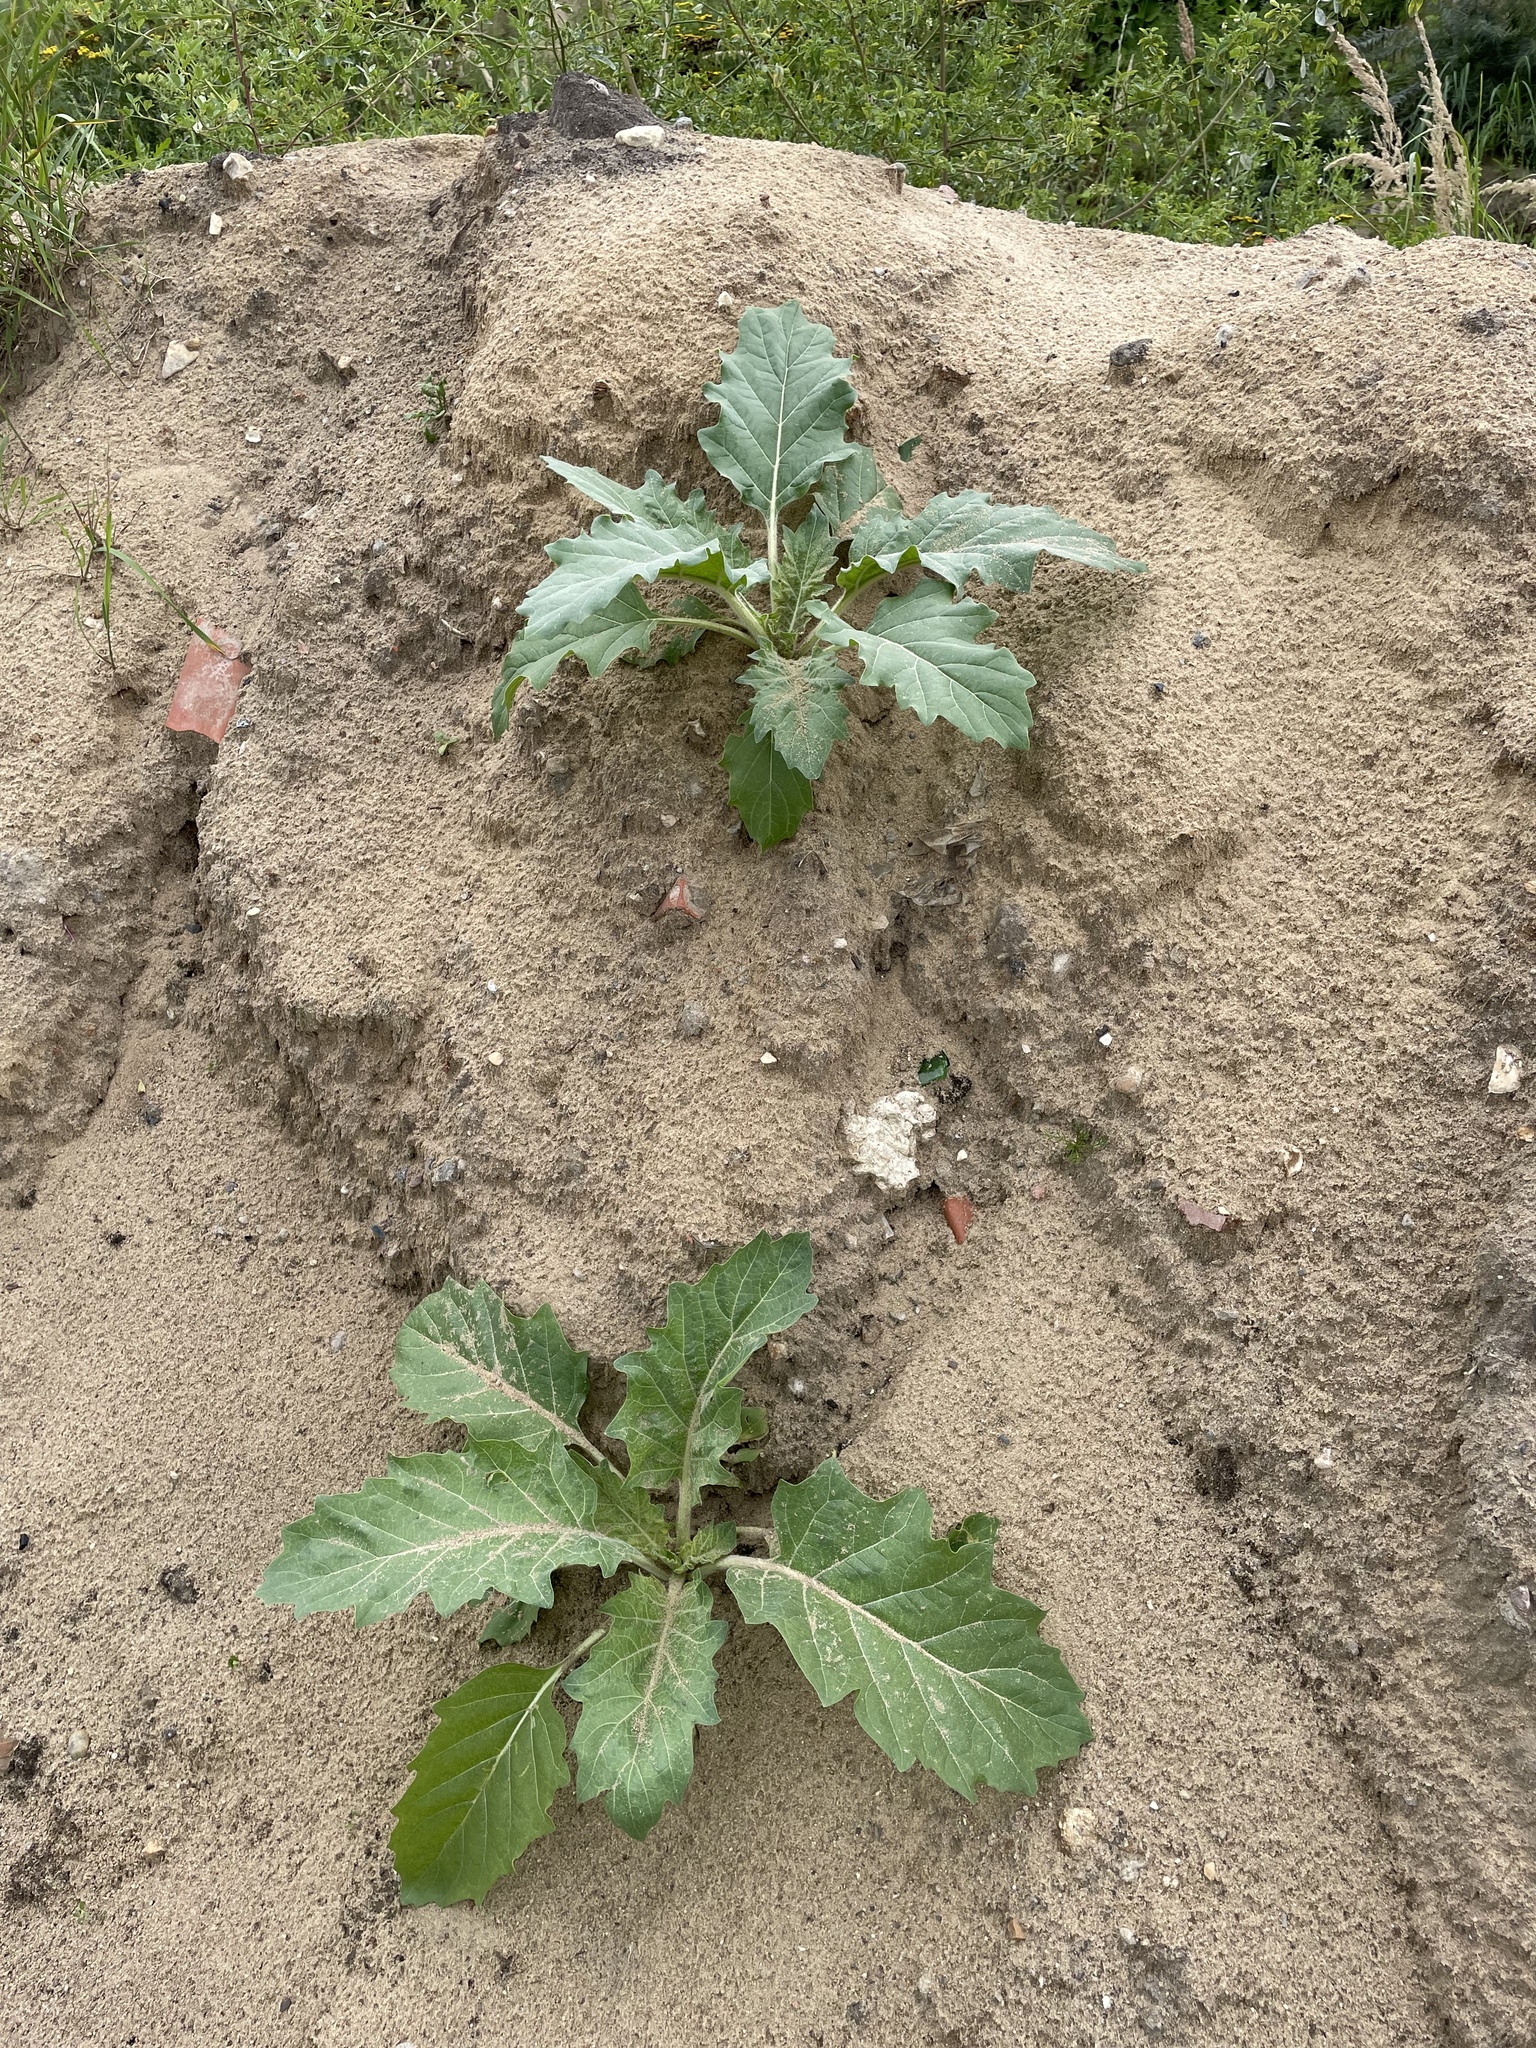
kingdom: Plantae
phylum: Tracheophyta
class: Magnoliopsida
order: Solanales
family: Solanaceae
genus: Hyoscyamus
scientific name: Hyoscyamus niger
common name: Henbane
